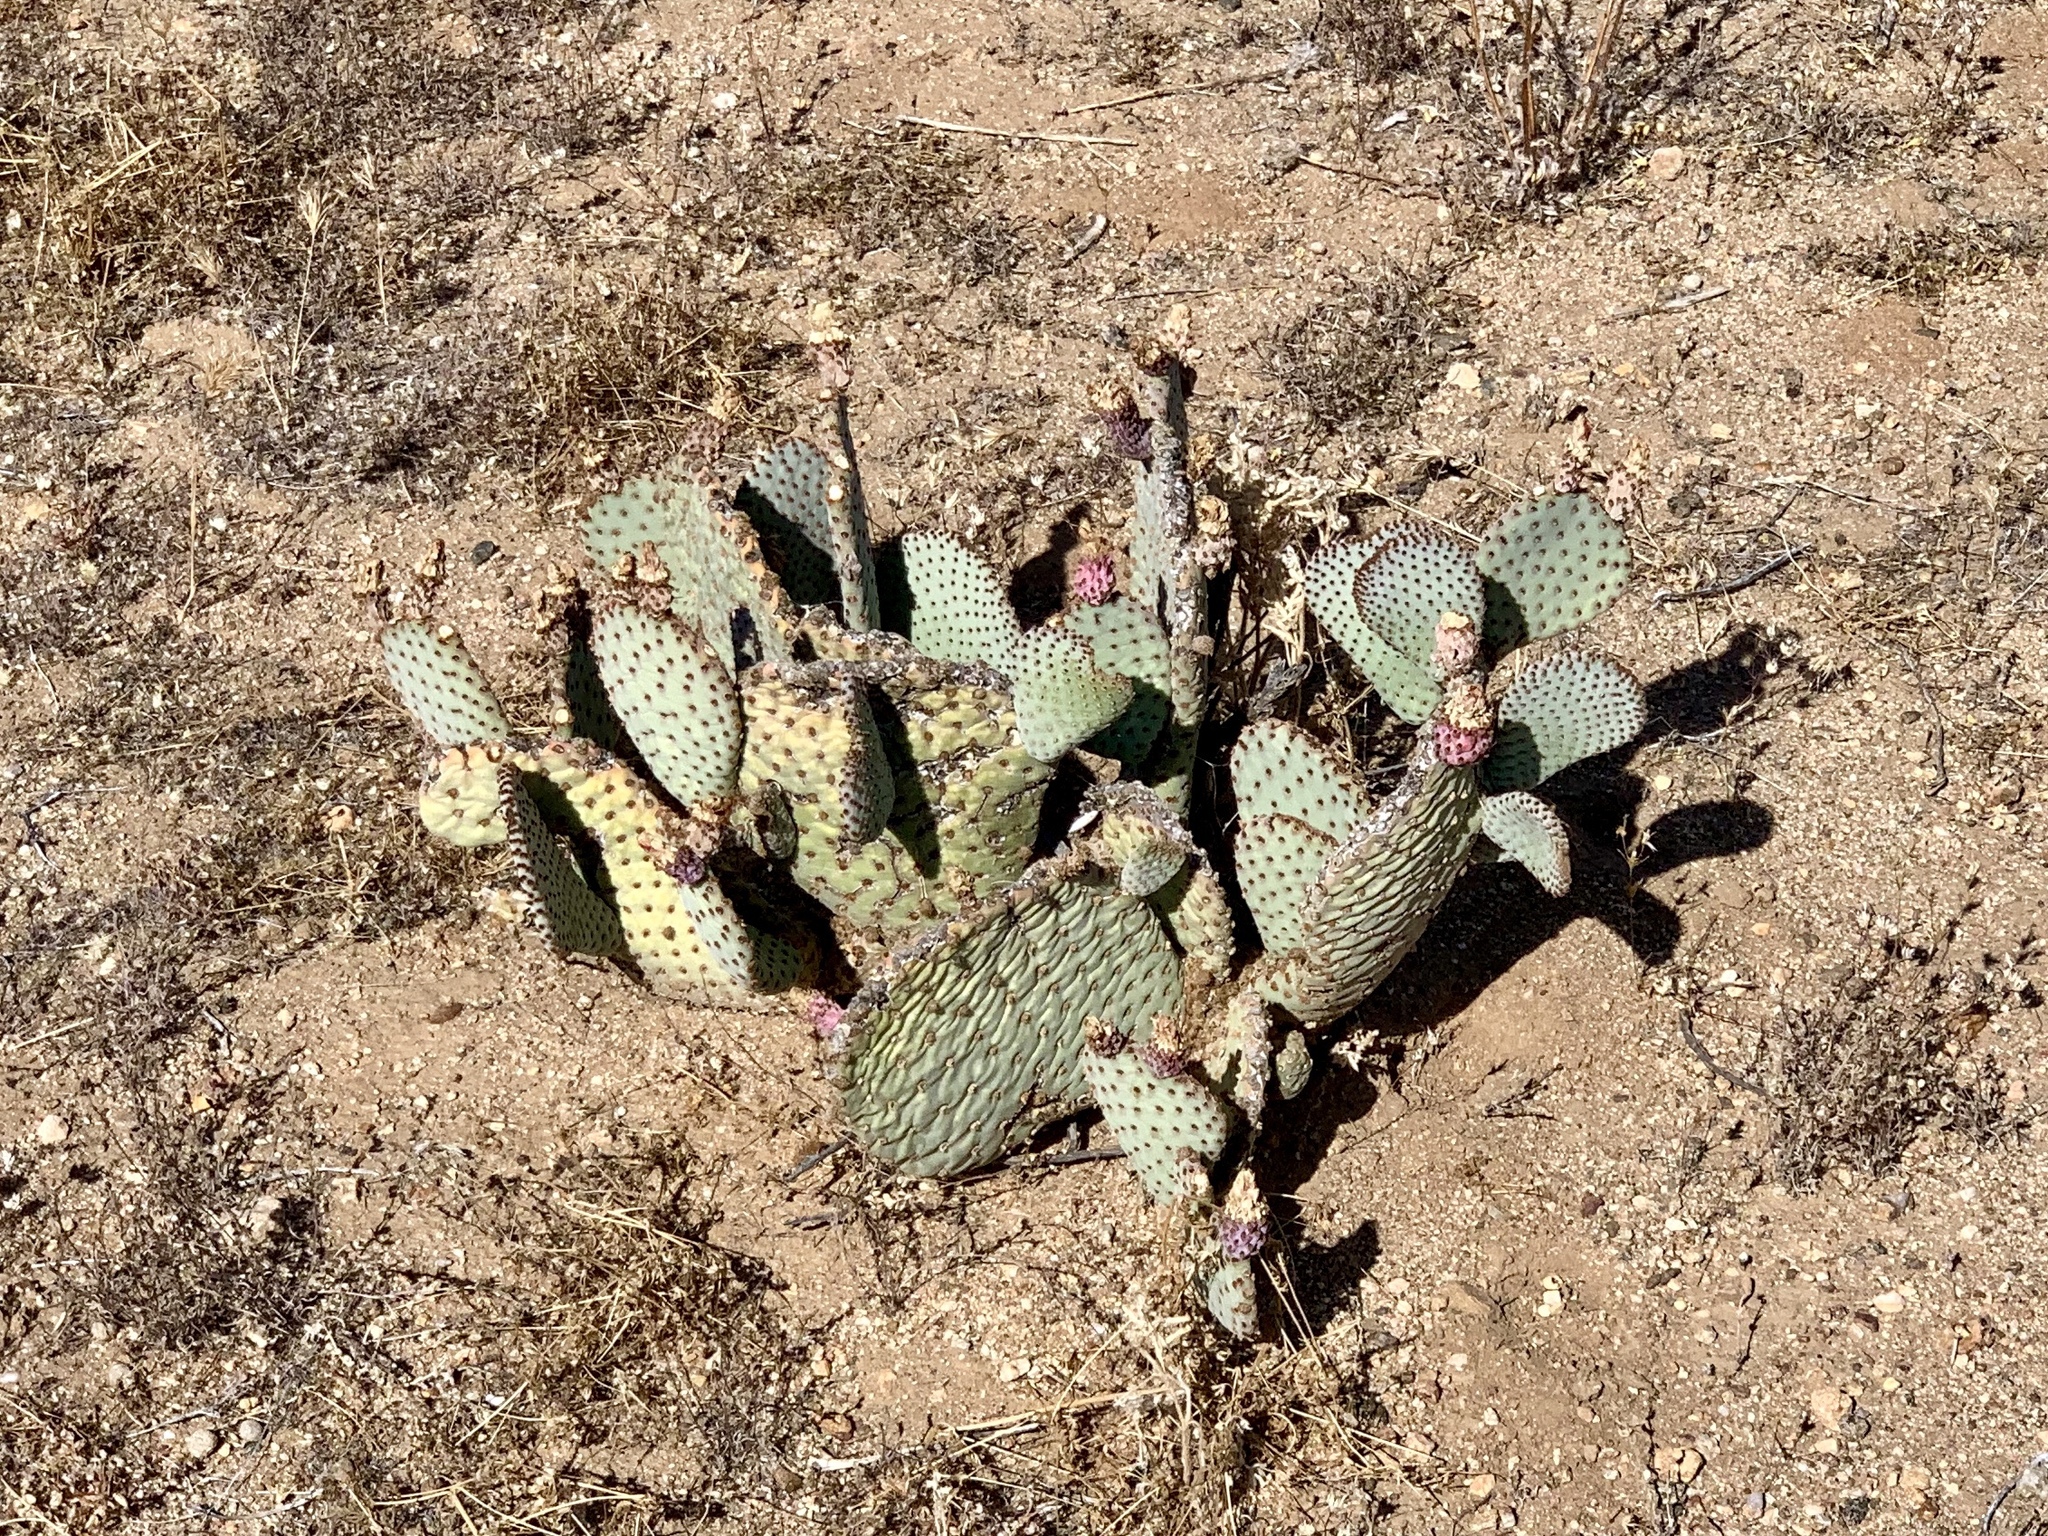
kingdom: Plantae
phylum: Tracheophyta
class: Magnoliopsida
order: Caryophyllales
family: Cactaceae
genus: Opuntia
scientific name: Opuntia basilaris
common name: Beavertail prickly-pear
